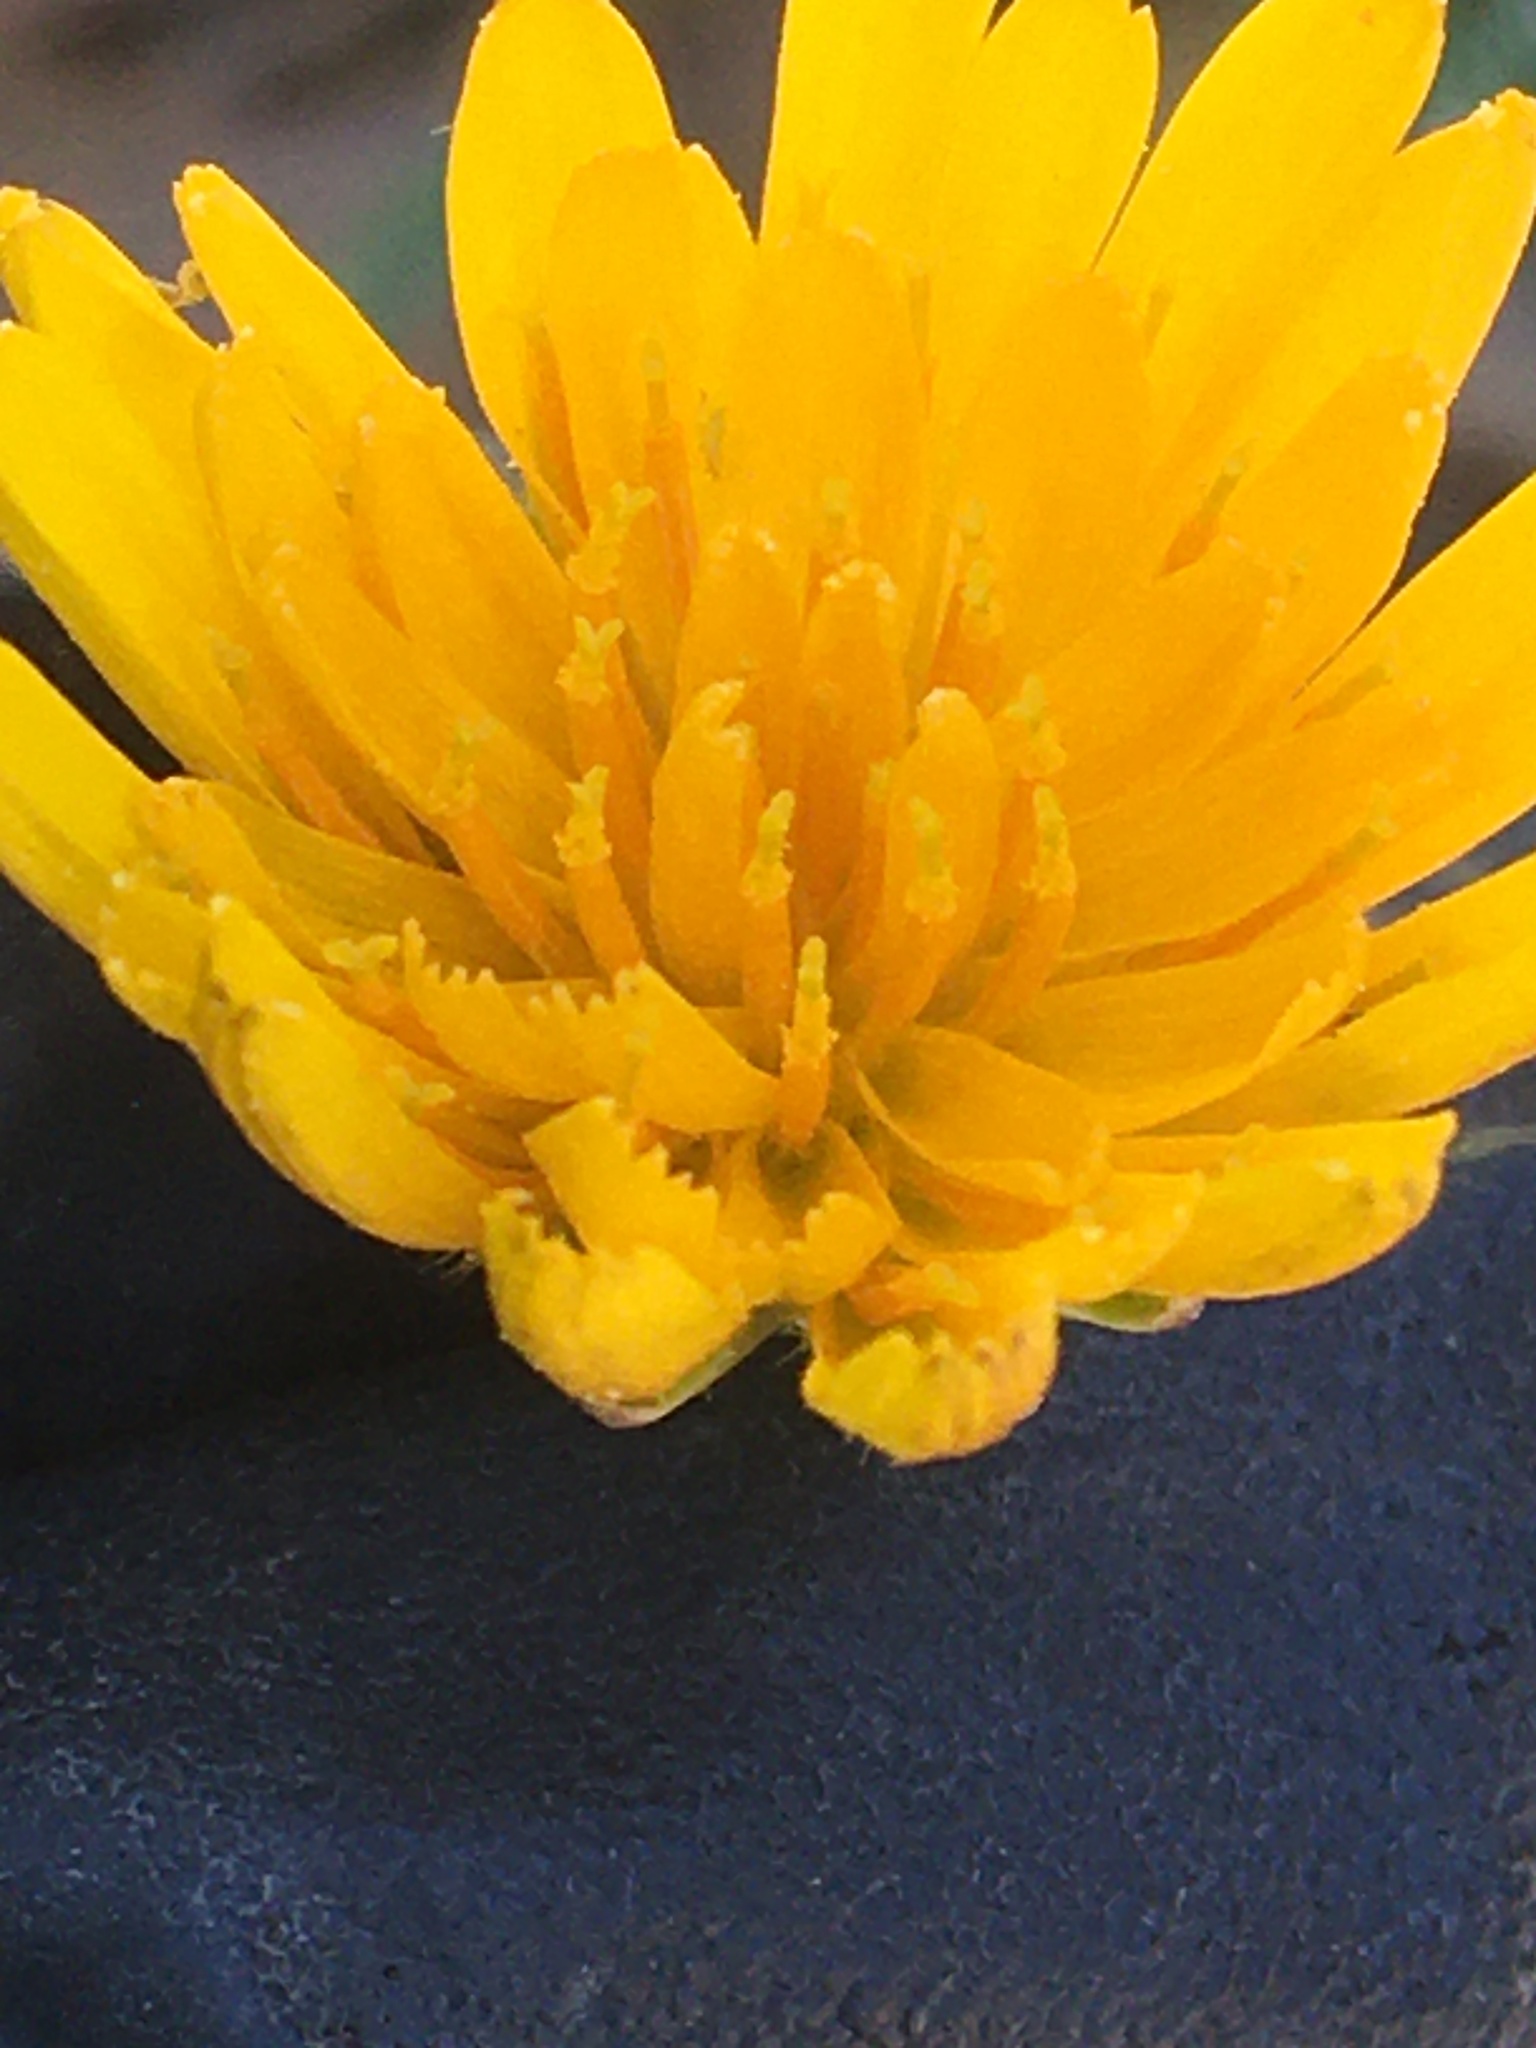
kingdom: Plantae
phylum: Tracheophyta
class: Magnoliopsida
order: Asterales
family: Asteraceae
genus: Krigia
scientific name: Krigia dandelion
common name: Colonial dwarf-dandelion
